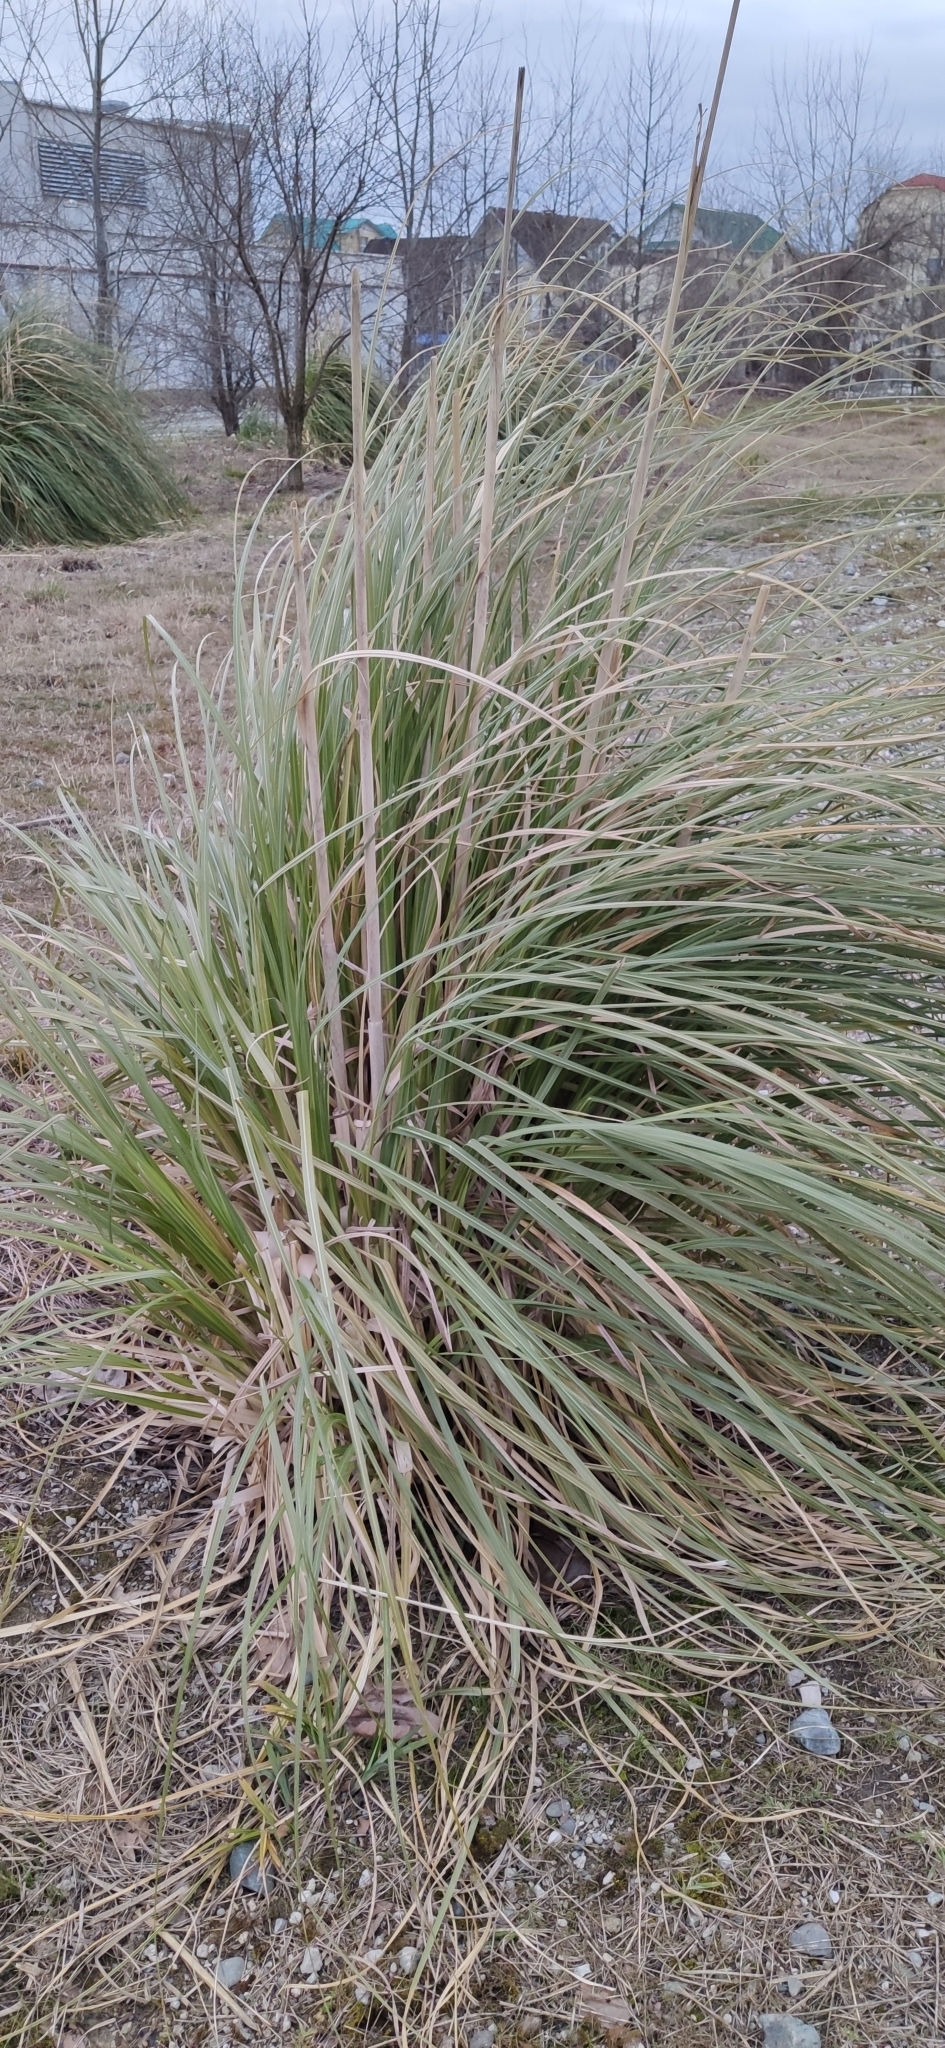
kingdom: Plantae
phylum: Tracheophyta
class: Liliopsida
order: Poales
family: Poaceae
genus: Cortaderia
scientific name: Cortaderia selloana
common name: Uruguayan pampas grass
